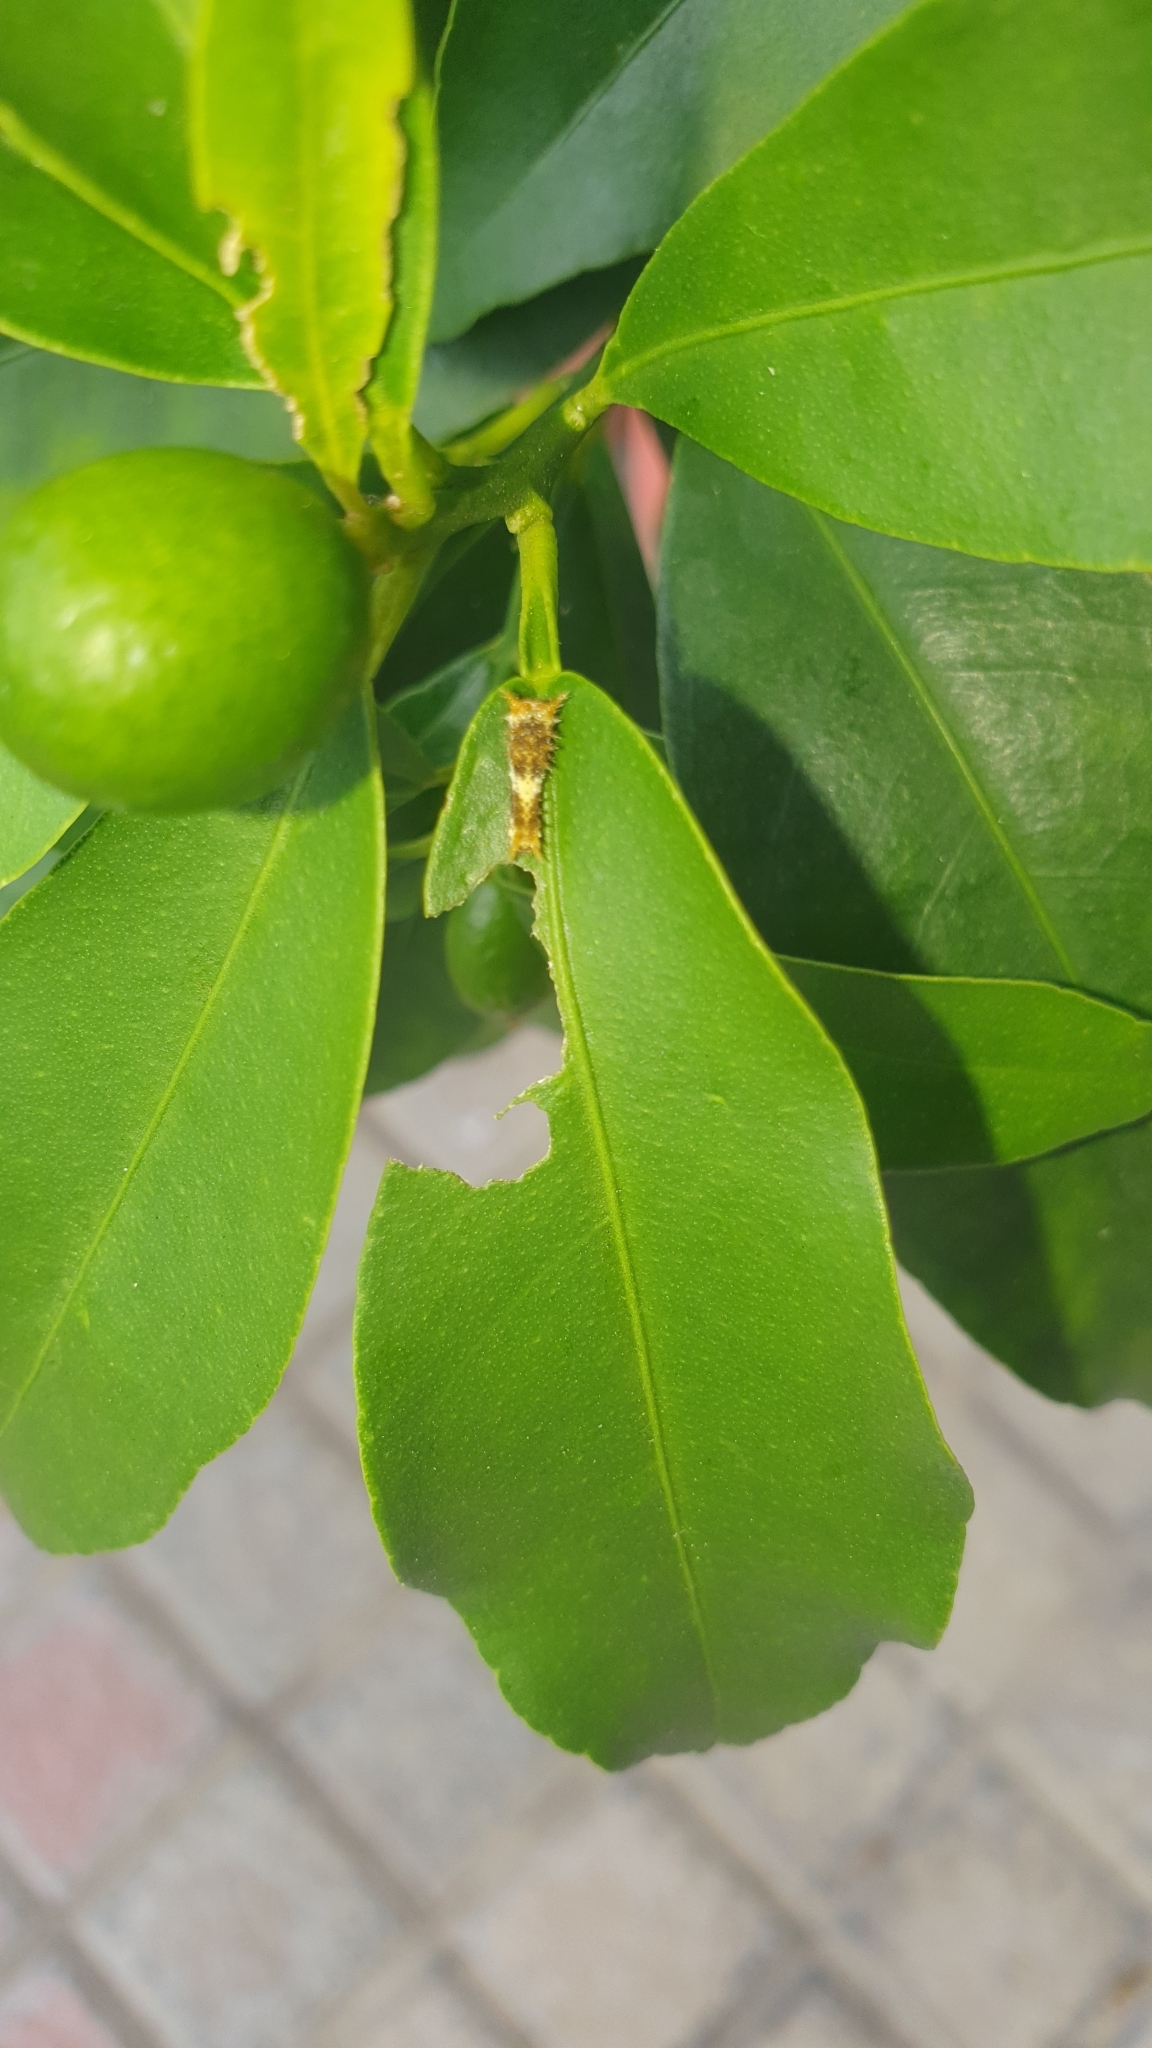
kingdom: Animalia
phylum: Arthropoda
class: Insecta
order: Lepidoptera
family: Papilionidae
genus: Papilio
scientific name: Papilio demoleus
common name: Lime butterfly
